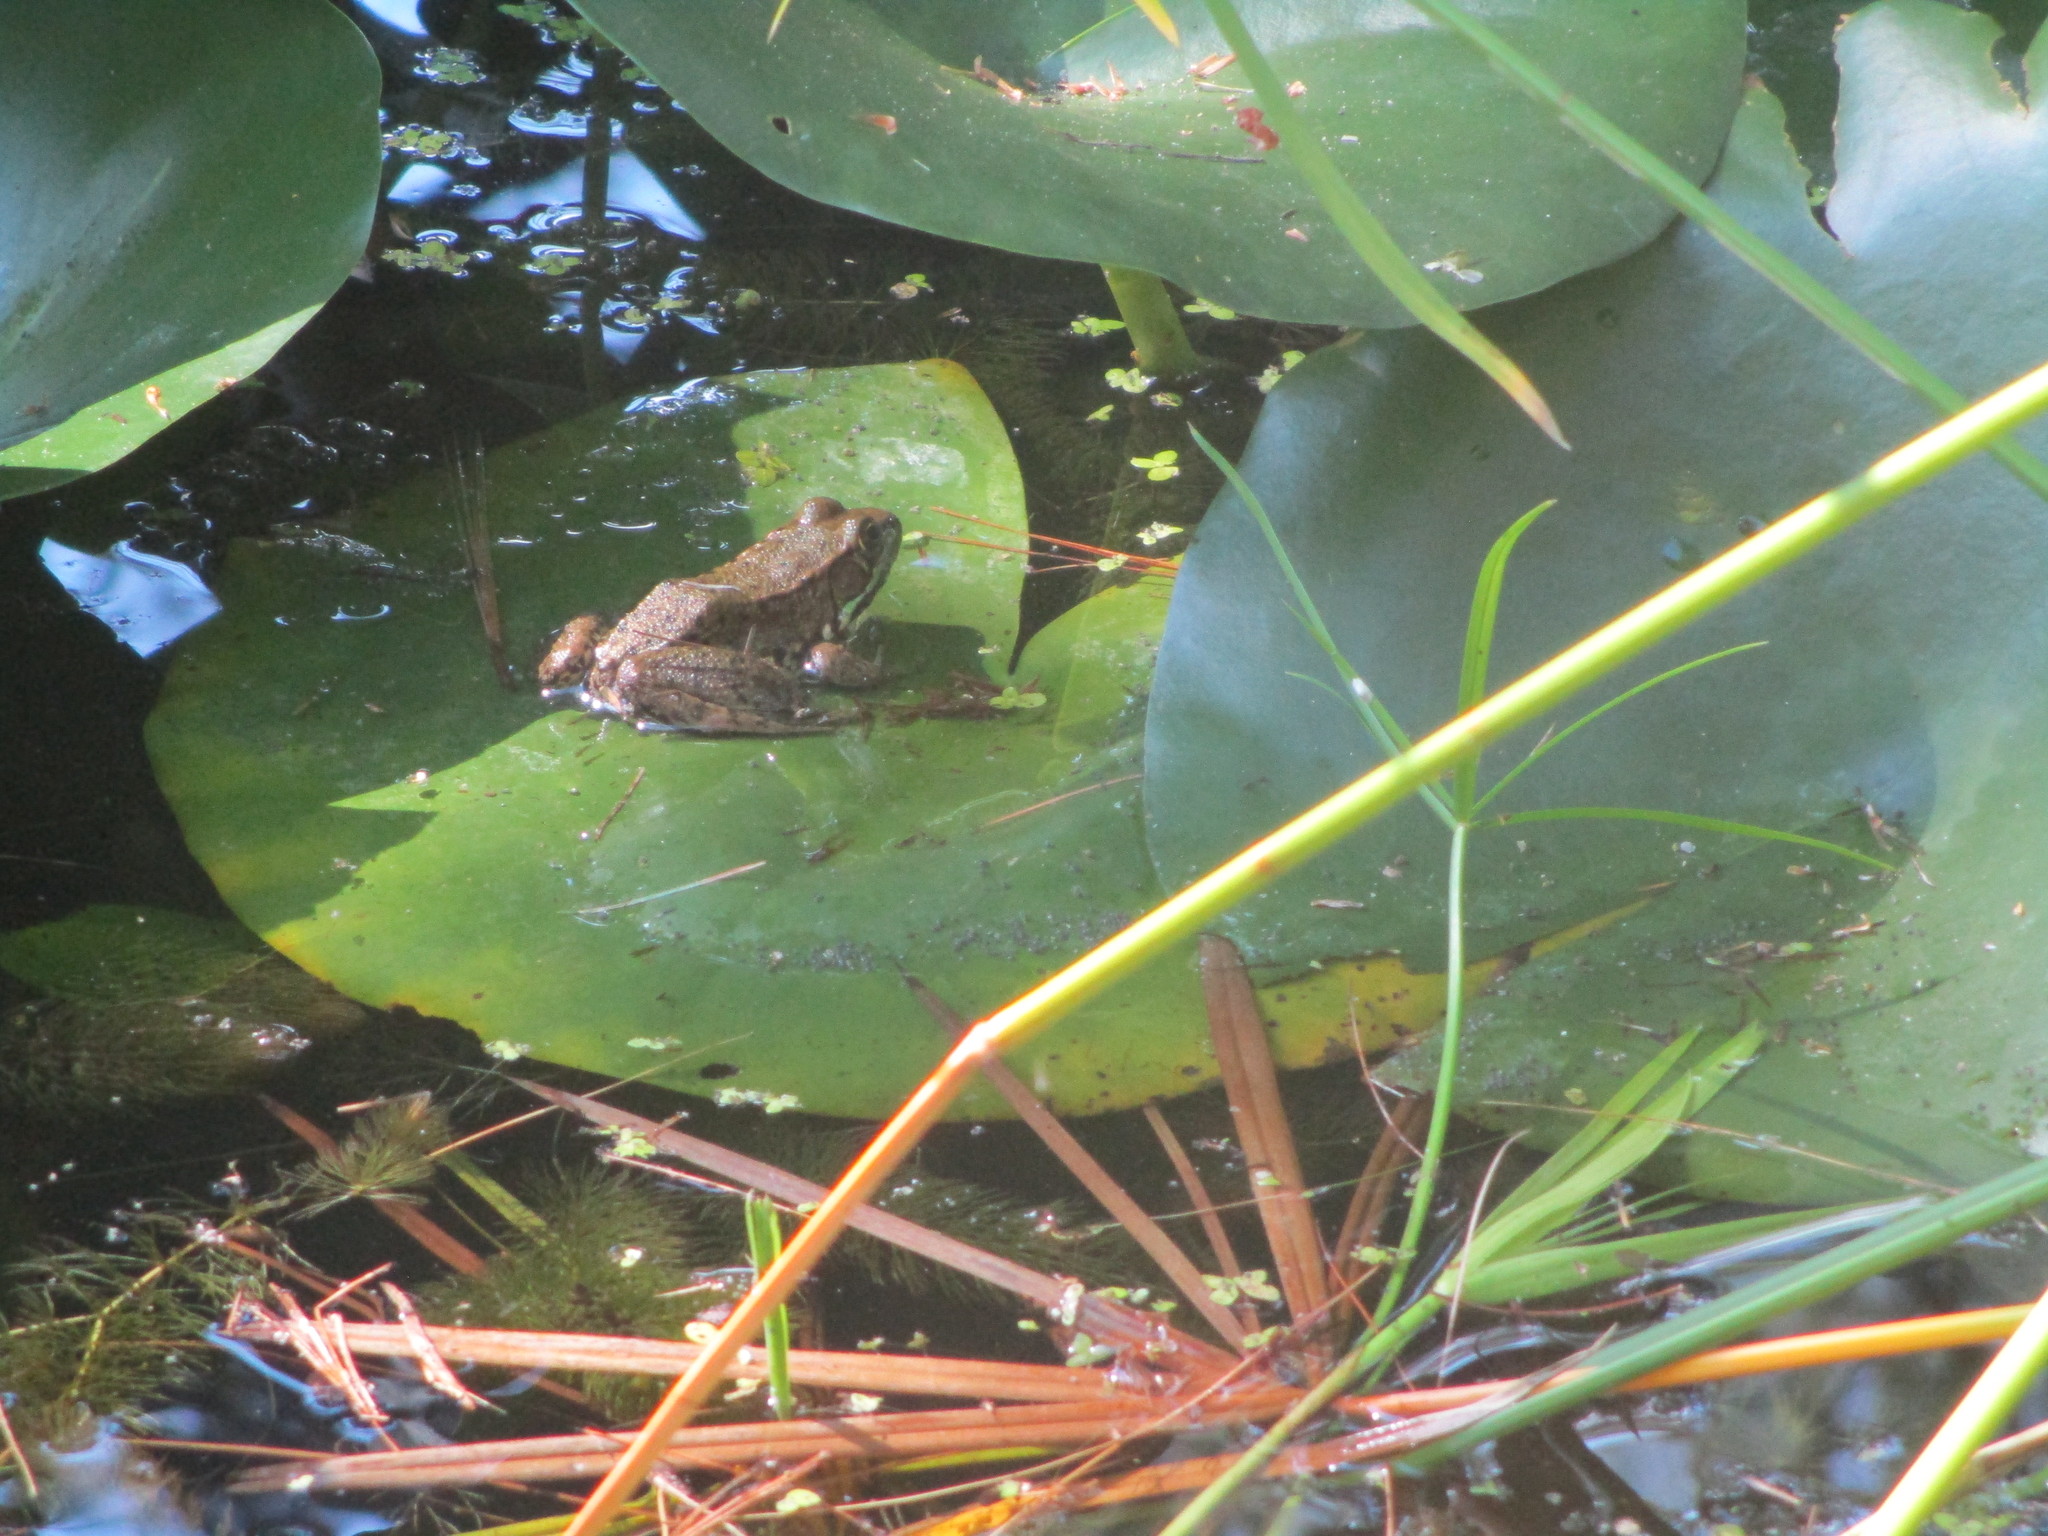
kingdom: Animalia
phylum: Chordata
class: Amphibia
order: Anura
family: Ranidae
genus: Lithobates
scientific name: Lithobates clamitans
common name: Green frog
